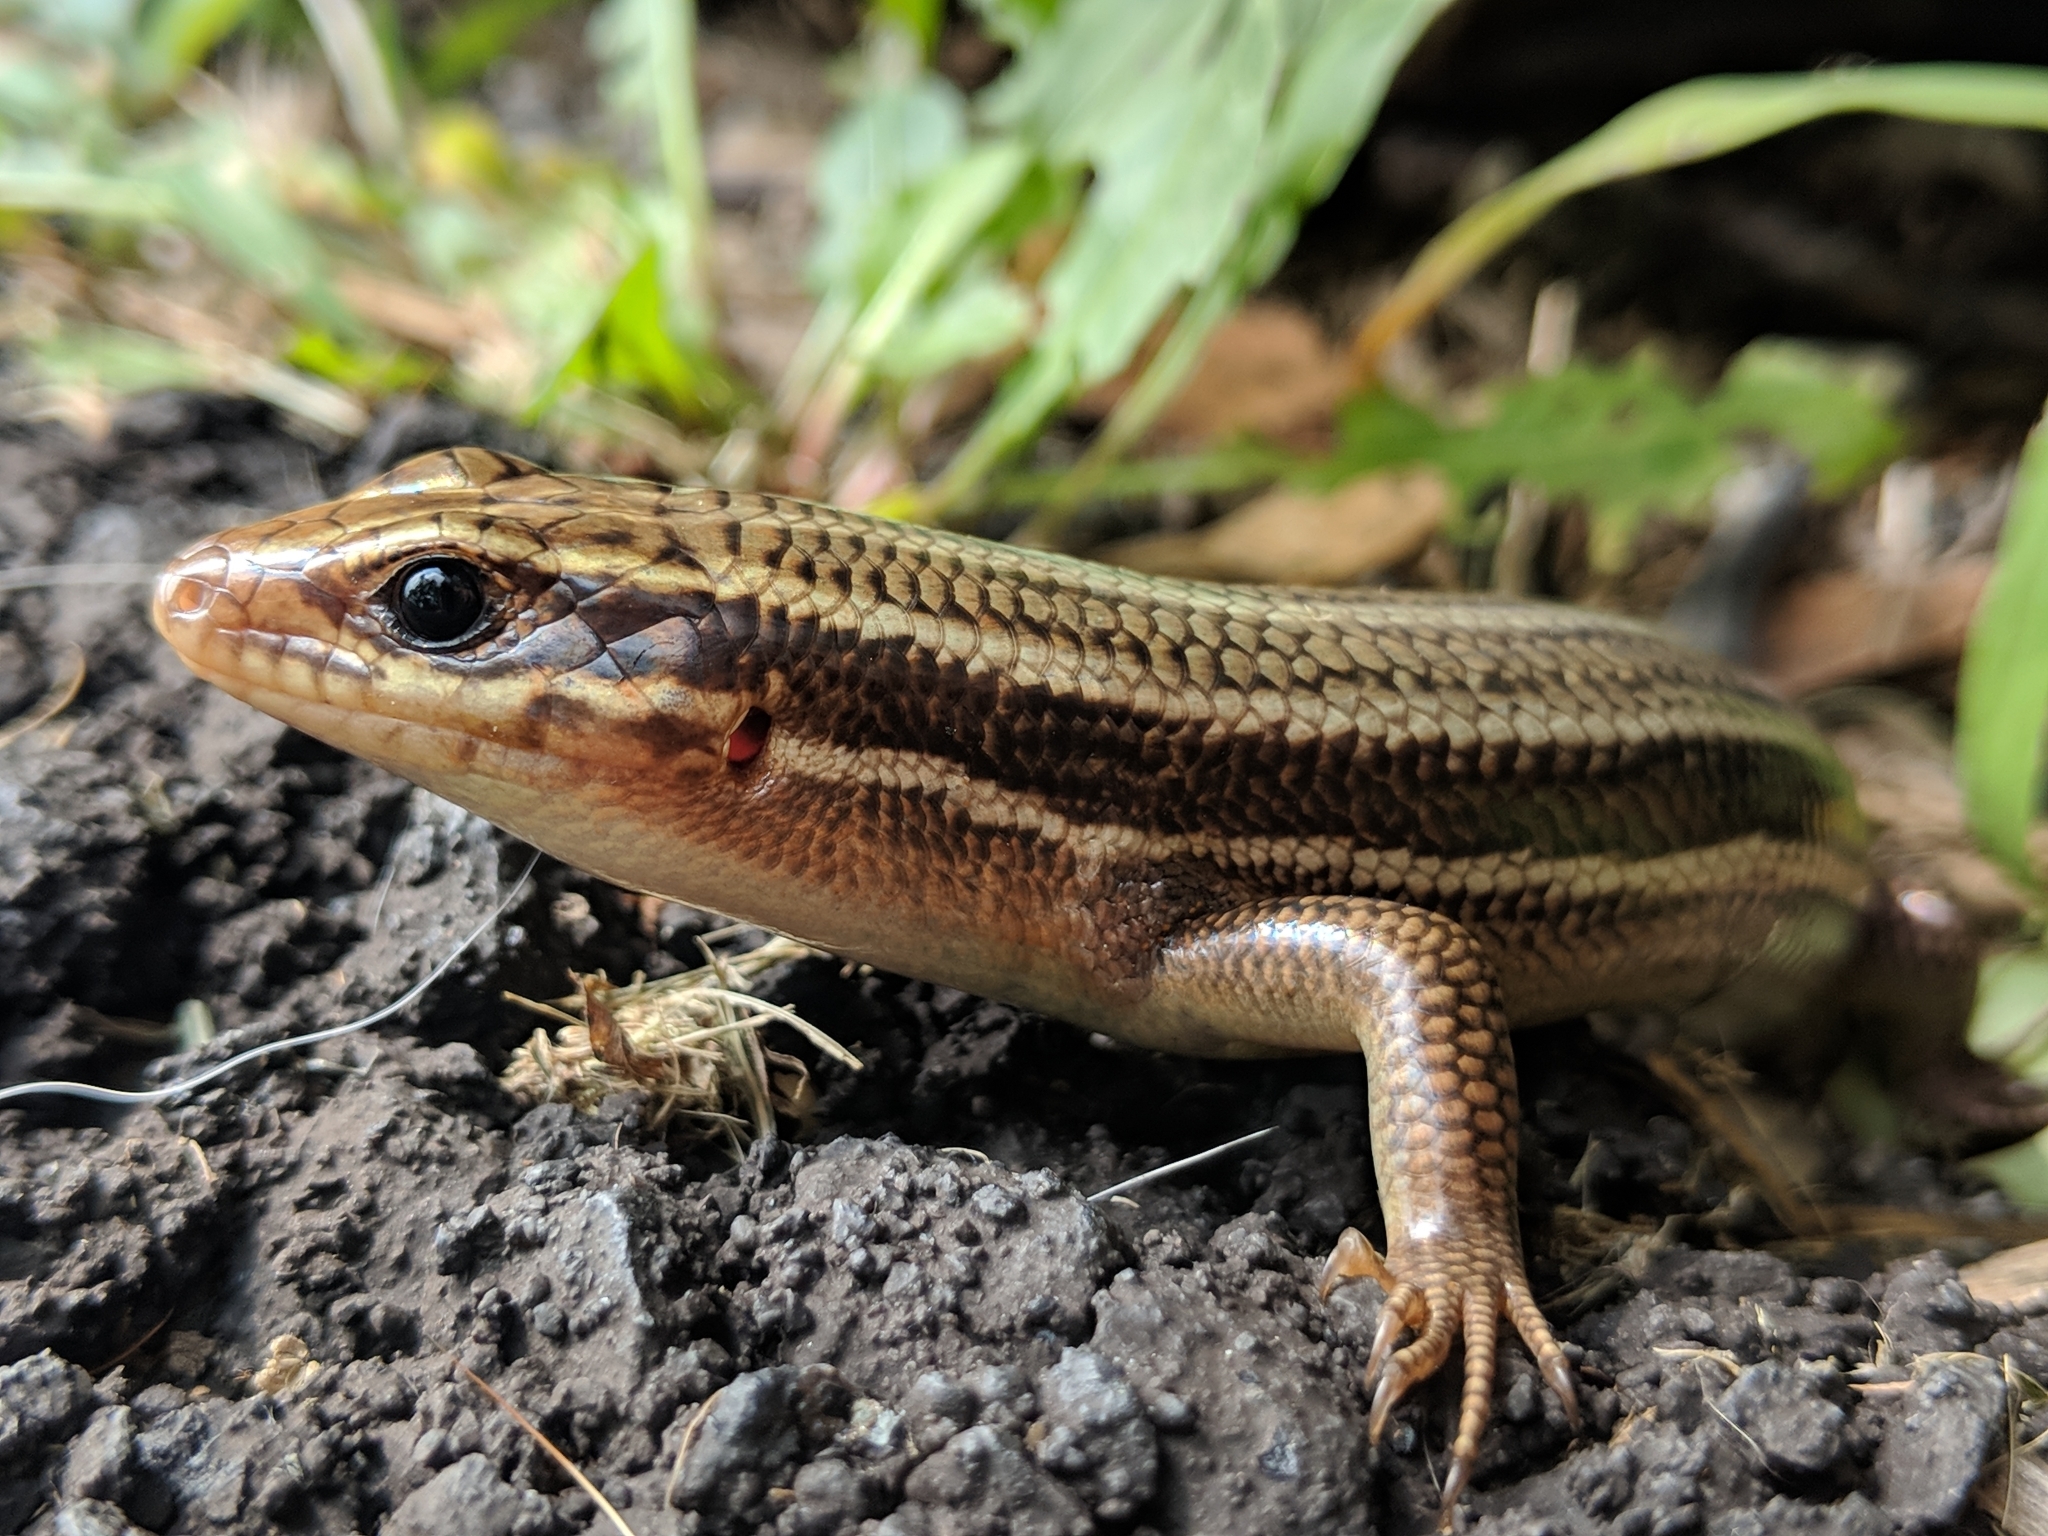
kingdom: Animalia
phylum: Chordata
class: Squamata
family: Scincidae
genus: Plestiodon
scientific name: Plestiodon laticeps
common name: Broadhead skink
